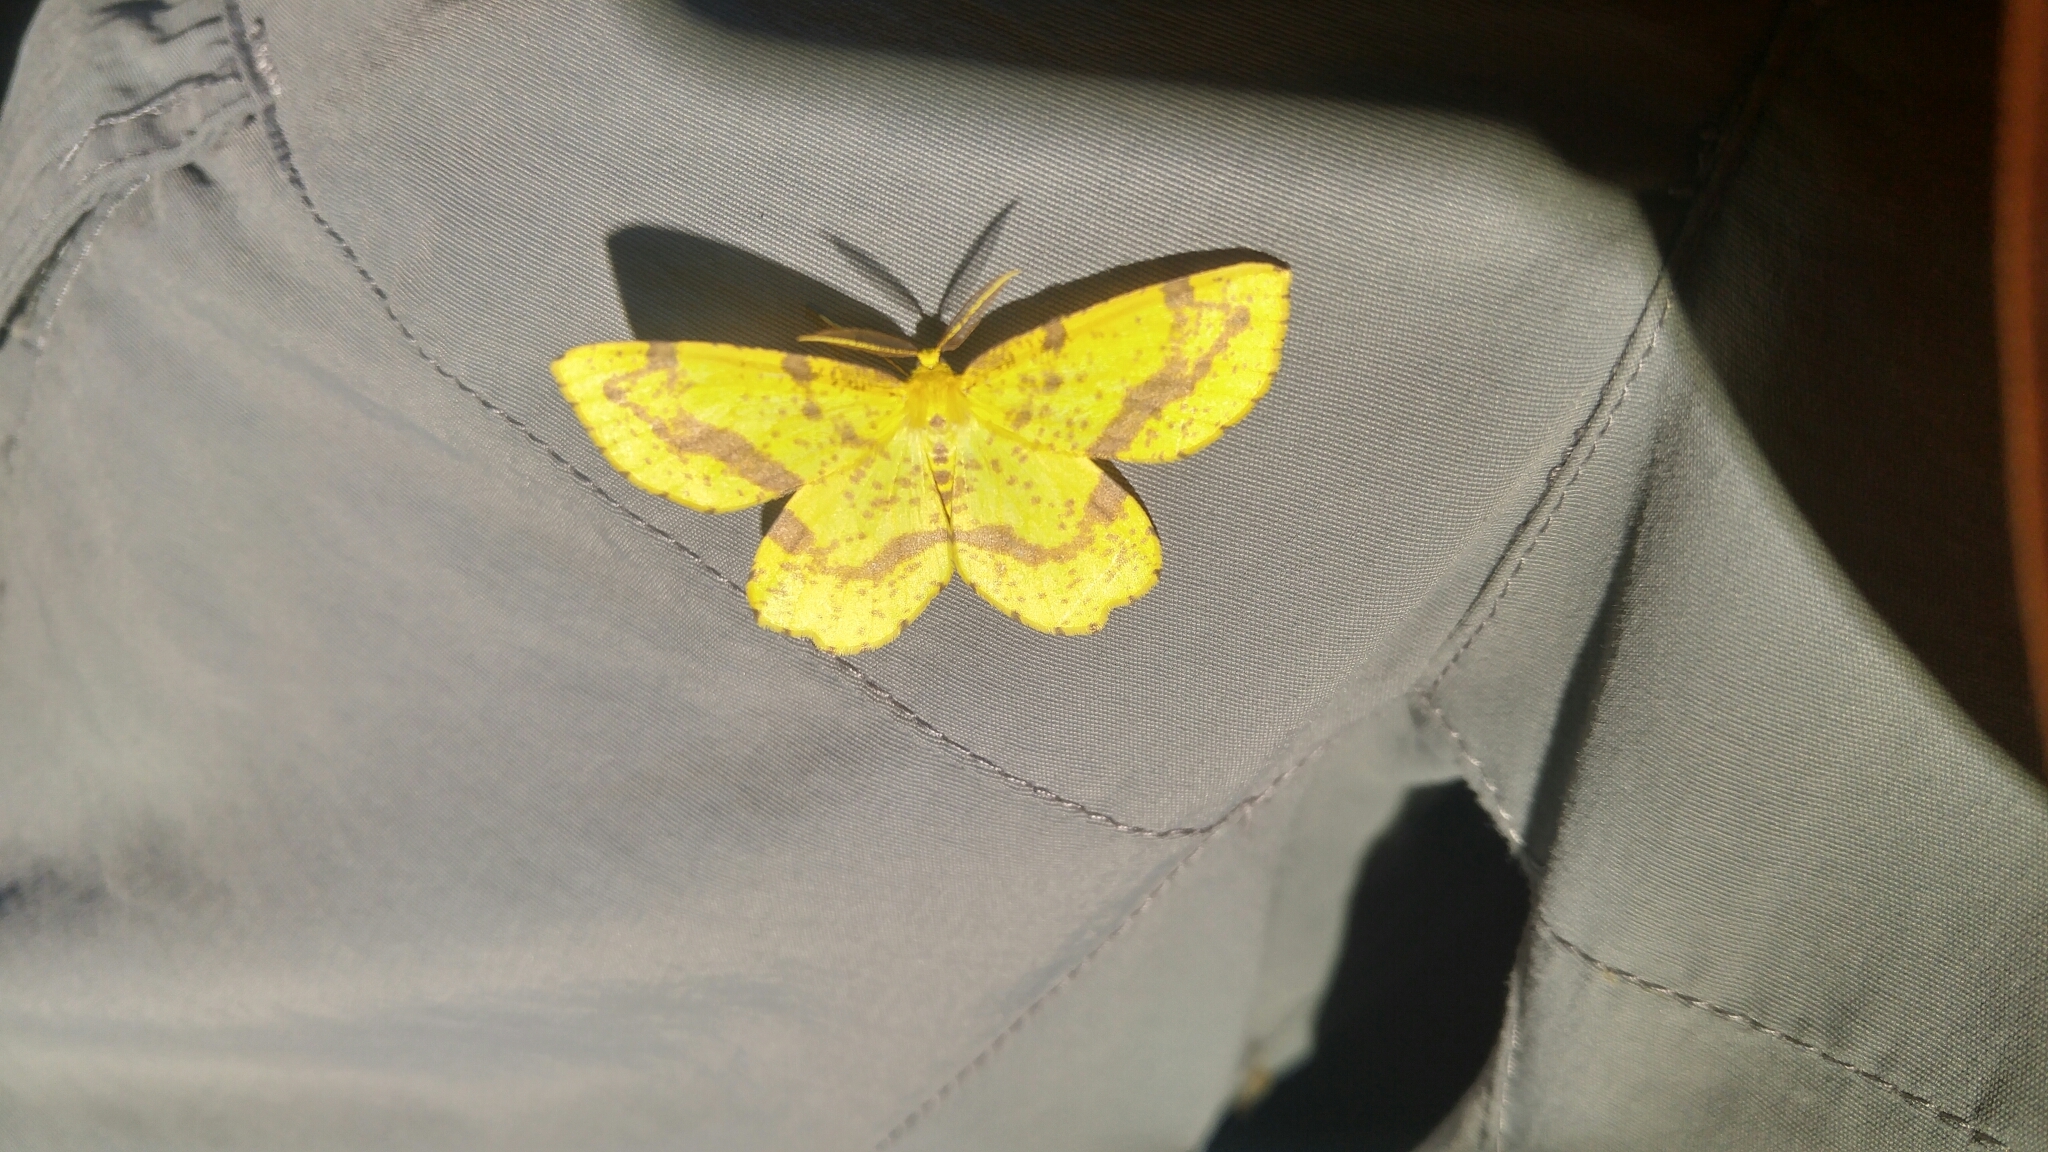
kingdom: Animalia
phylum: Arthropoda
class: Insecta
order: Lepidoptera
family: Geometridae
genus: Xanthotype
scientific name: Xanthotype
